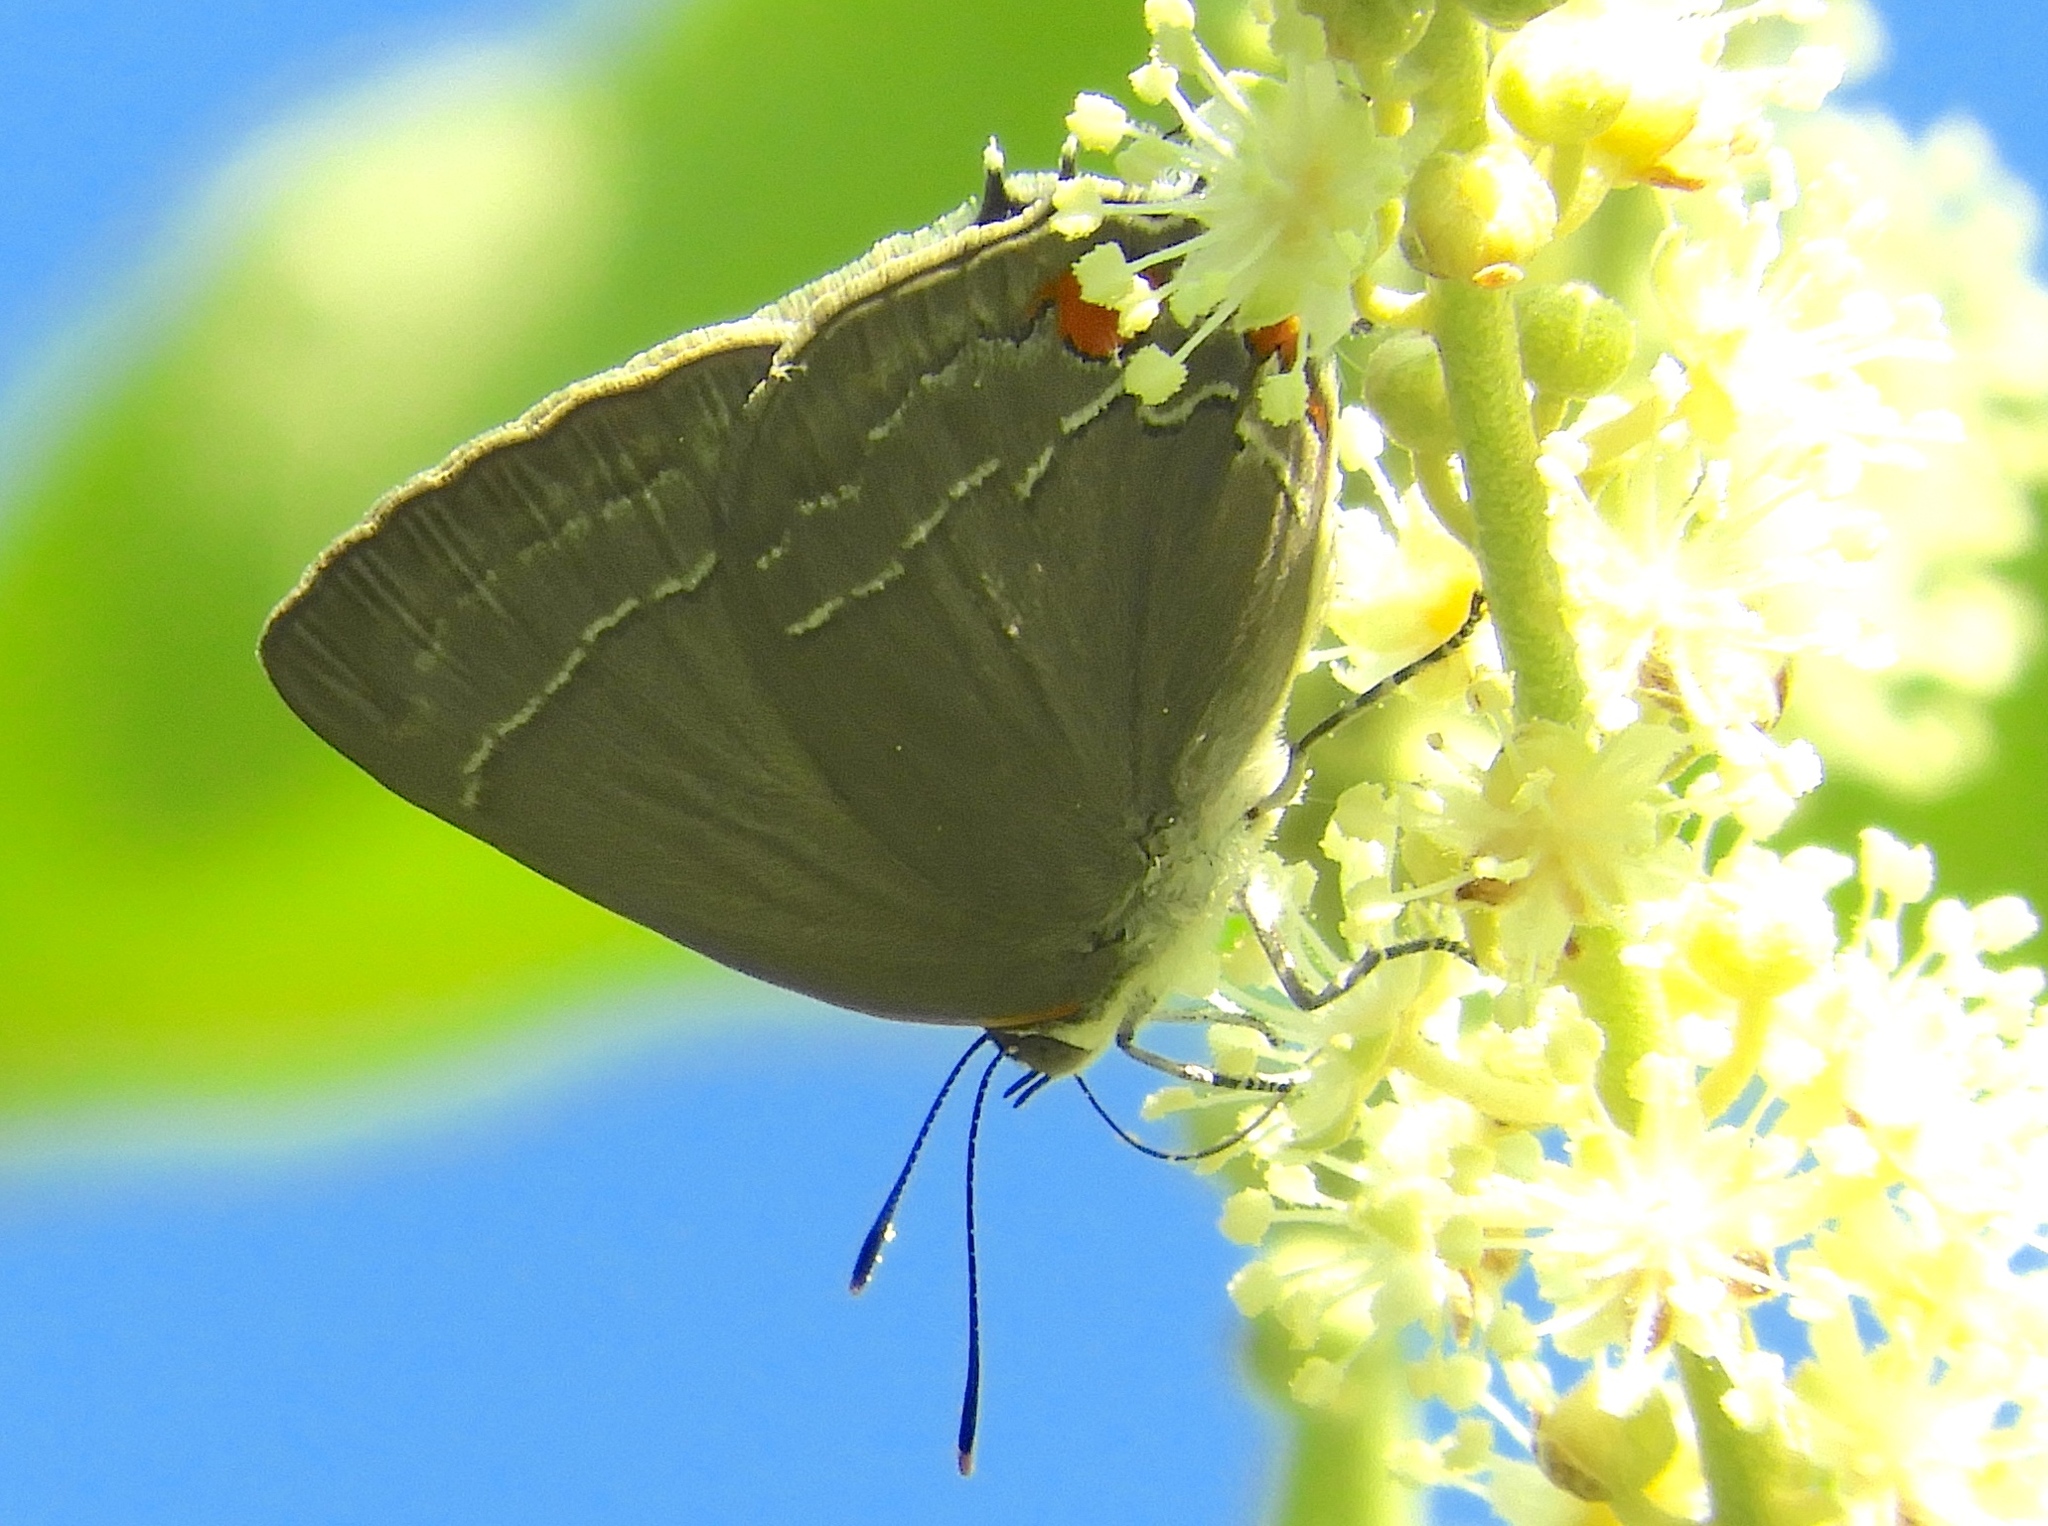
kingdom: Animalia
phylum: Arthropoda
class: Insecta
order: Lepidoptera
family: Lycaenidae
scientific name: Lycaenidae
